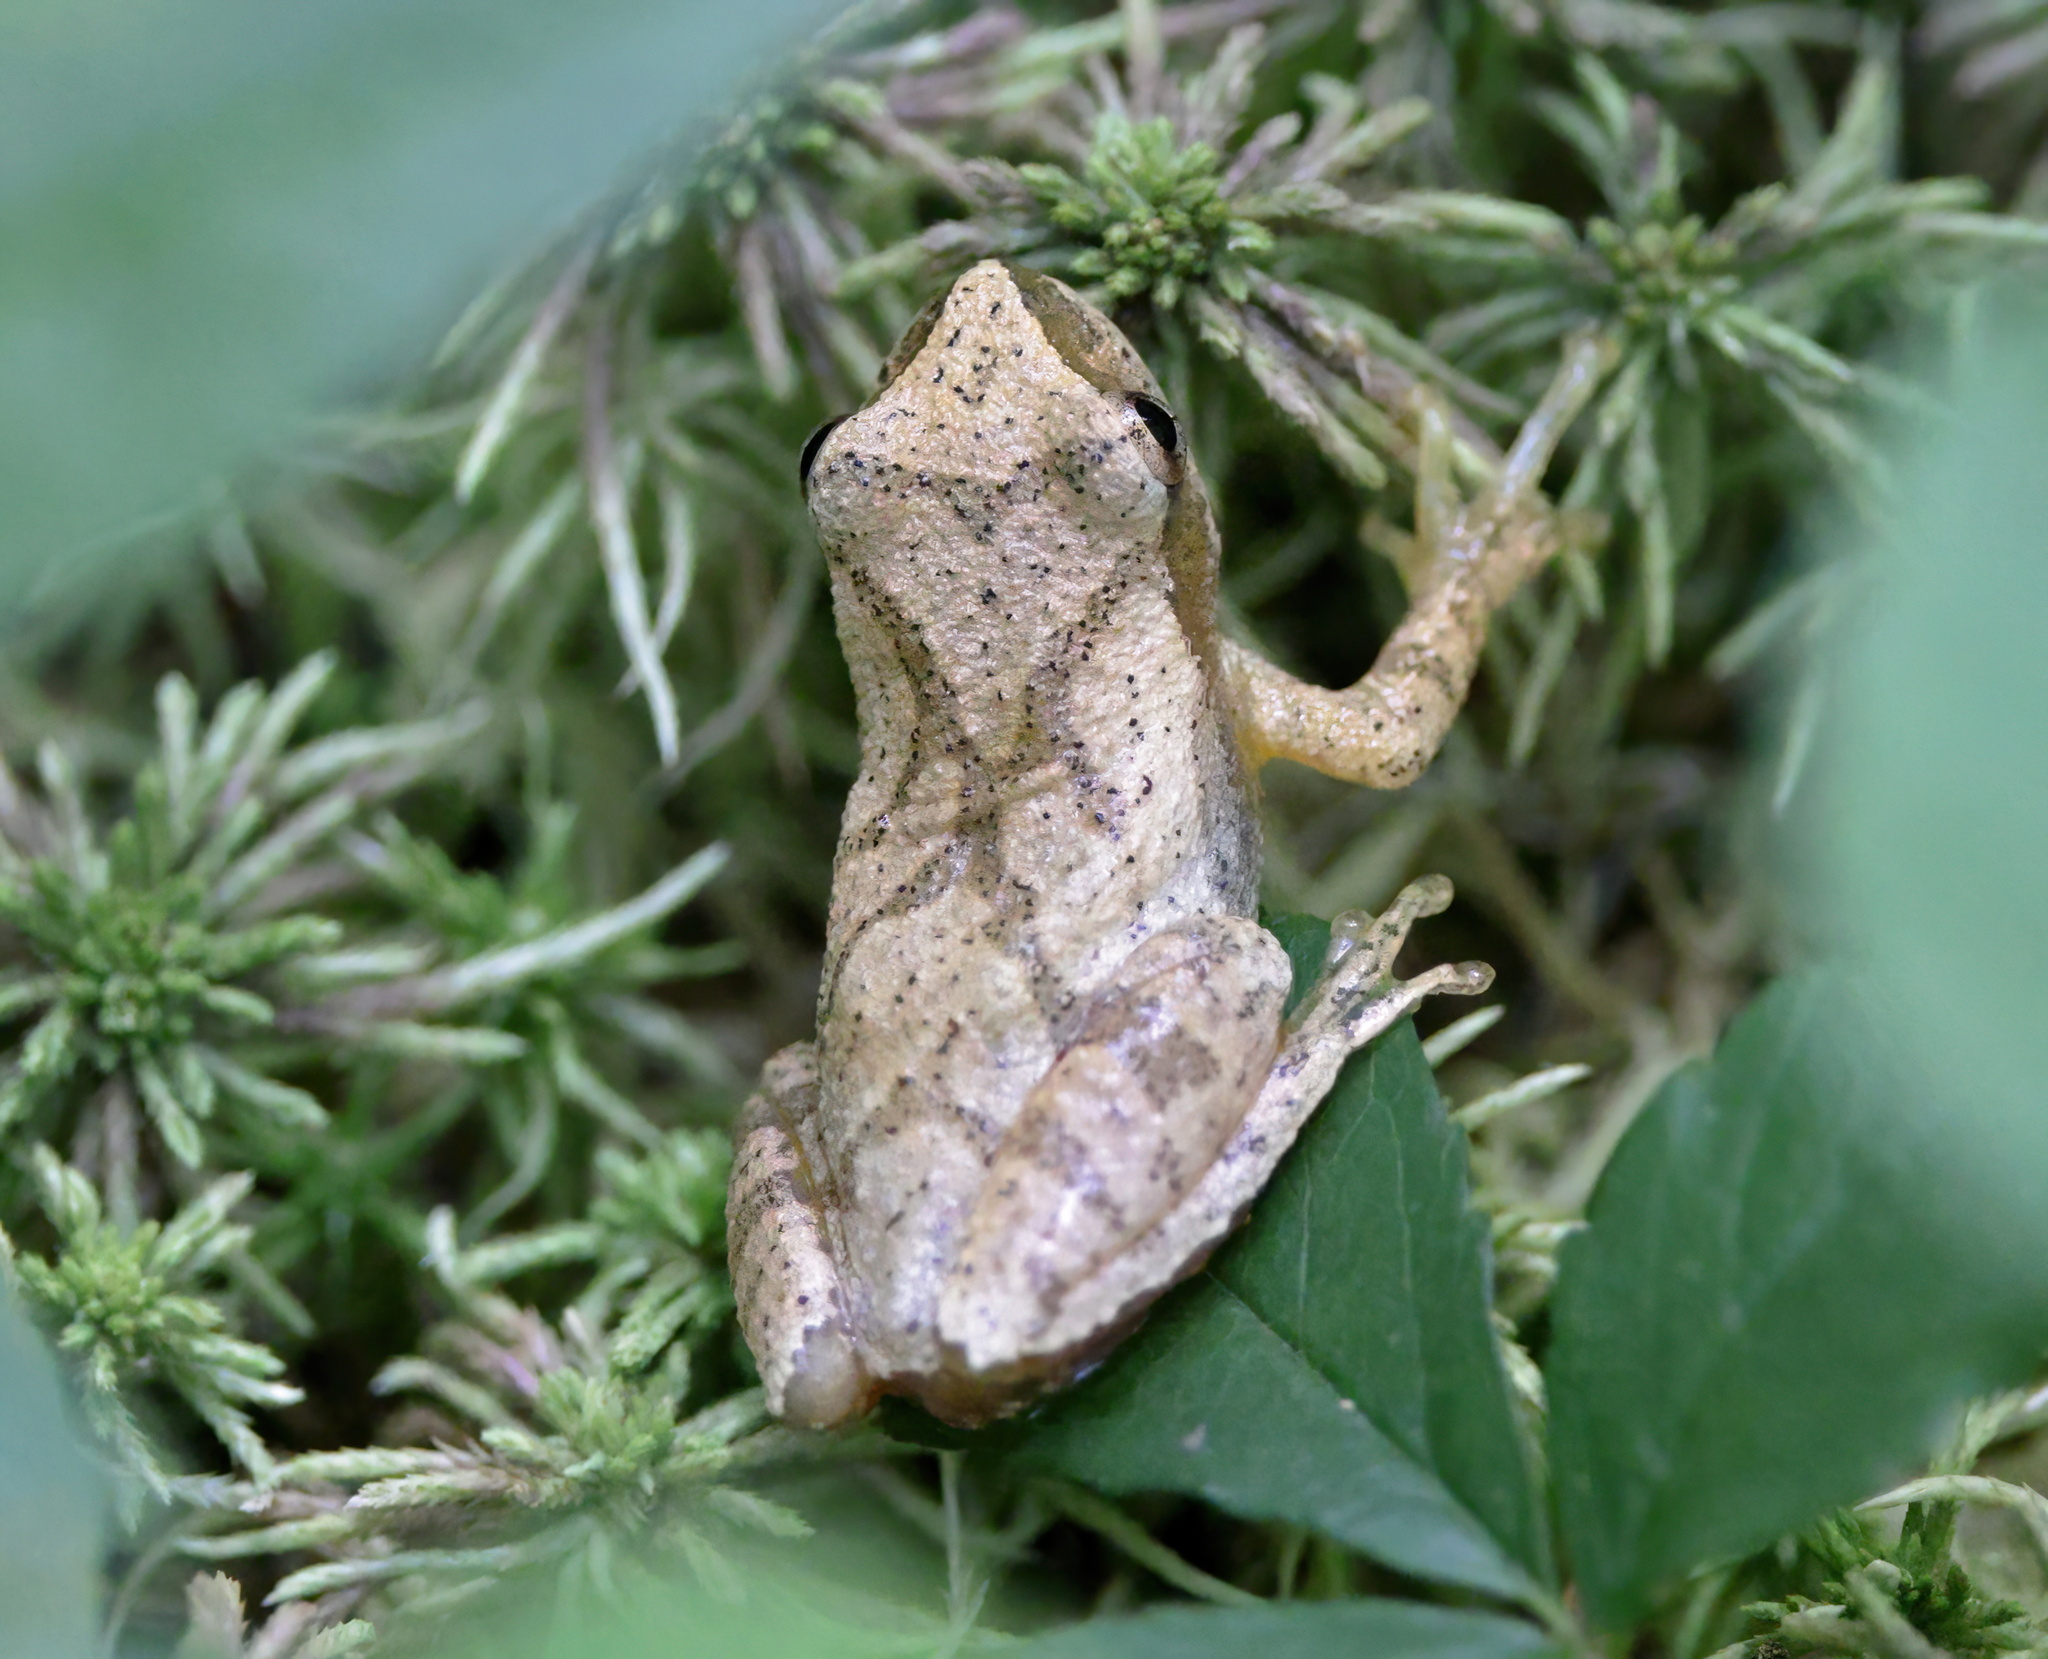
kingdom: Animalia
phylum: Chordata
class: Amphibia
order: Anura
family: Hylidae
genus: Pseudacris
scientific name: Pseudacris crucifer
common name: Spring peeper
